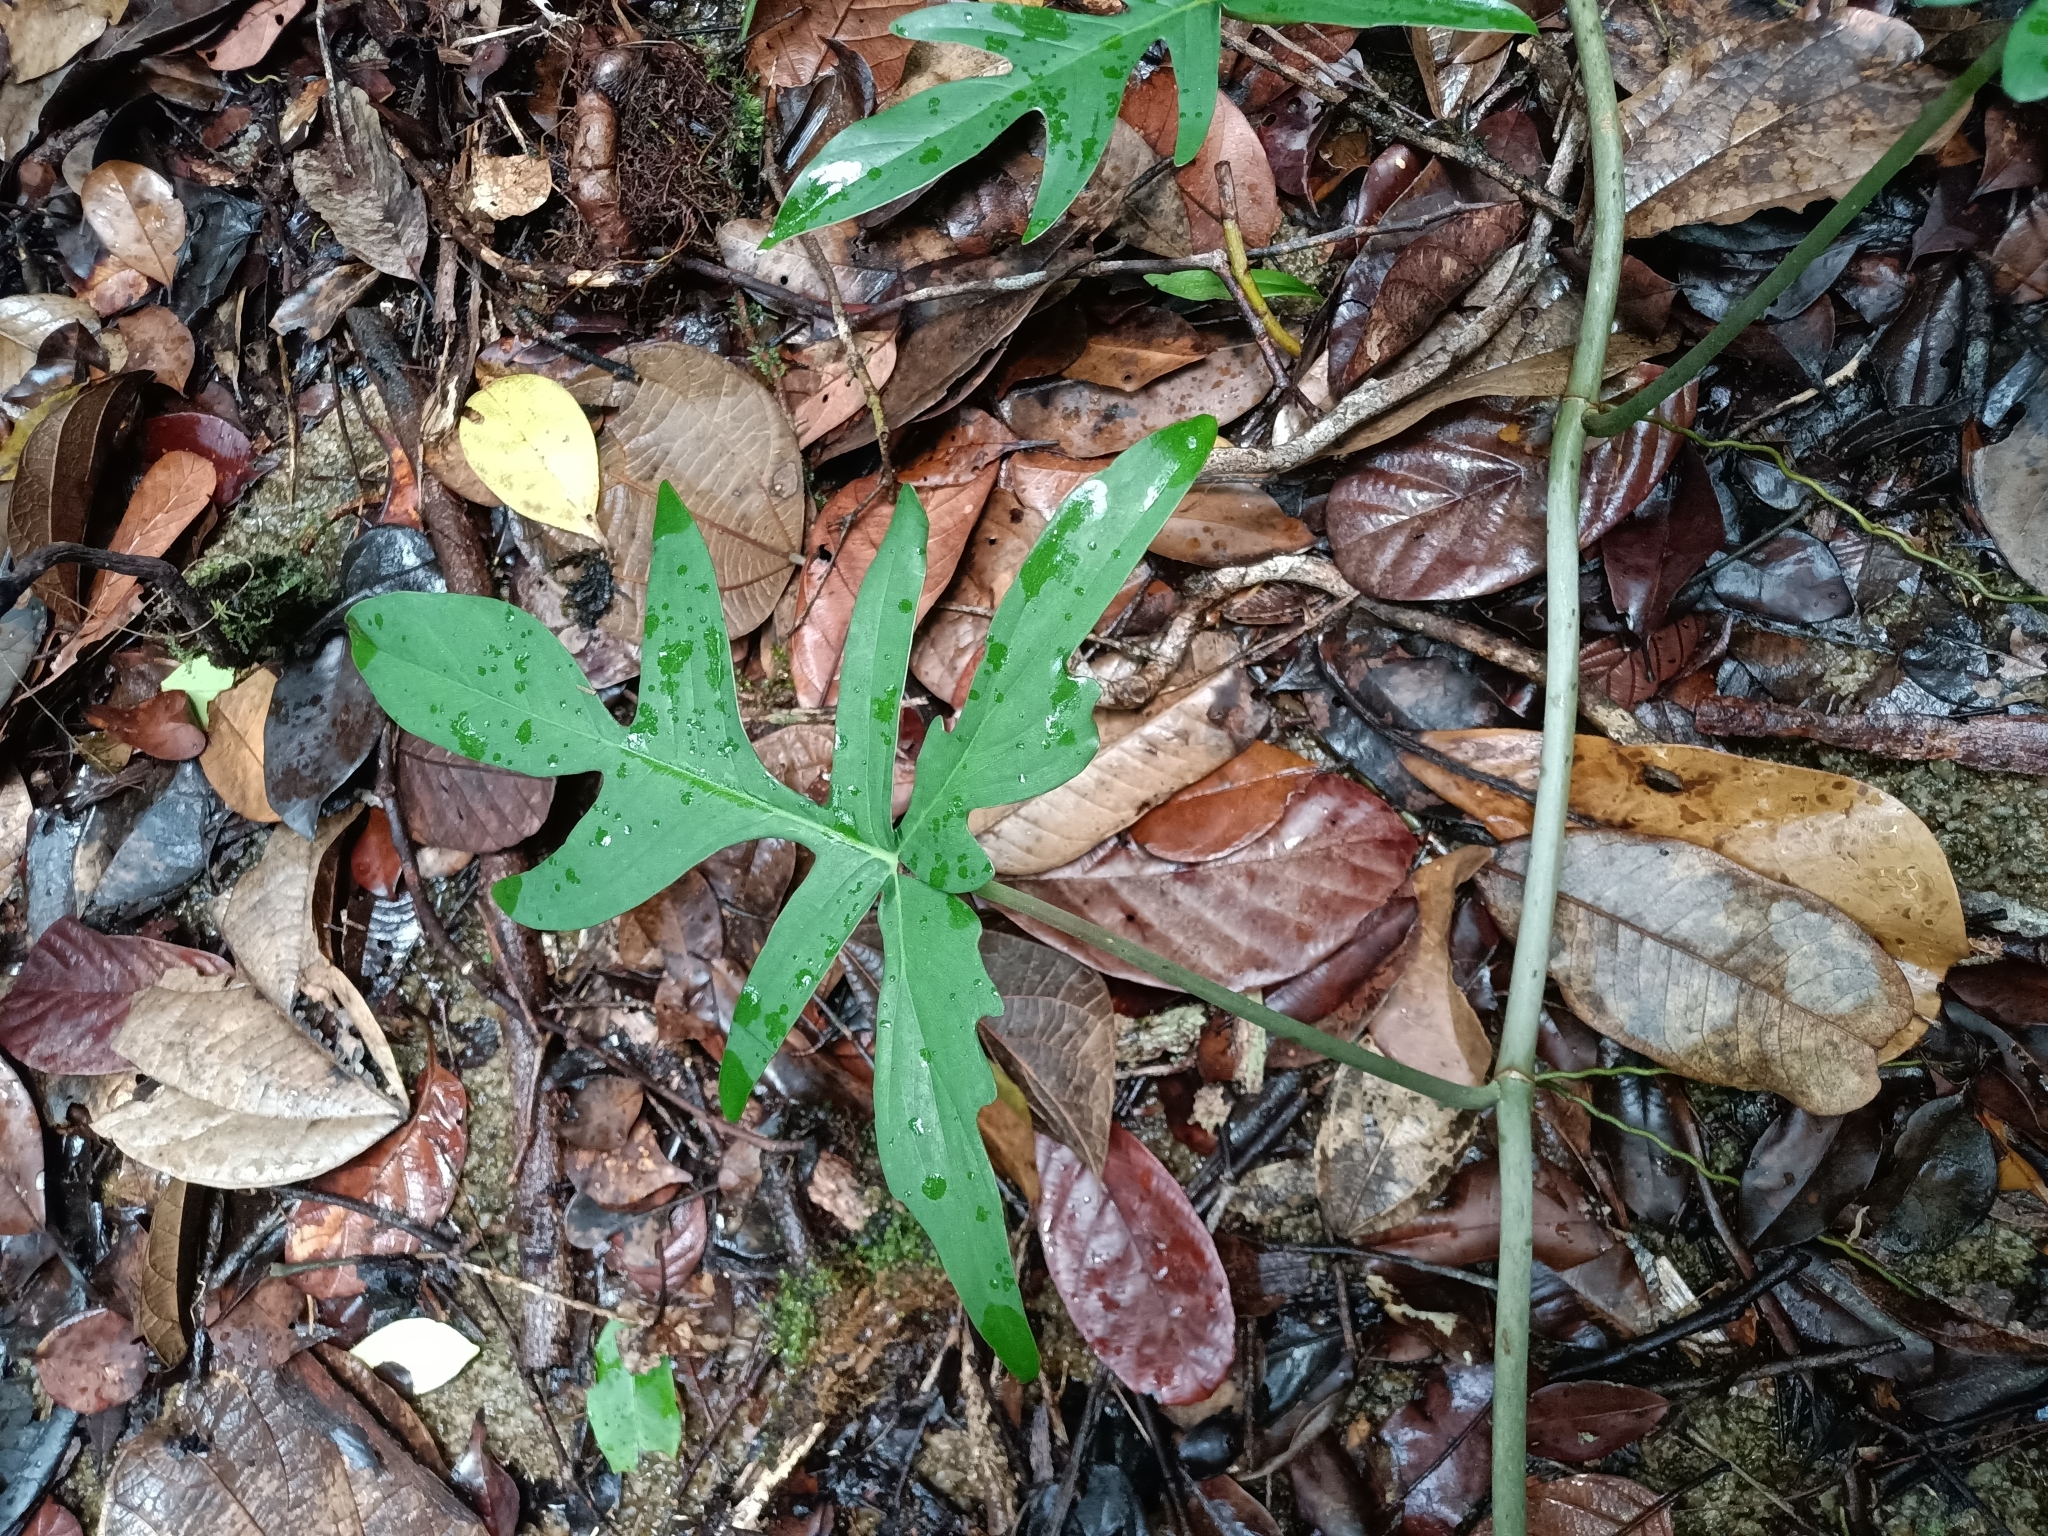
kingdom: Plantae
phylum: Tracheophyta
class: Liliopsida
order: Alismatales
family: Araceae
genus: Philodendron
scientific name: Philodendron pedatum
